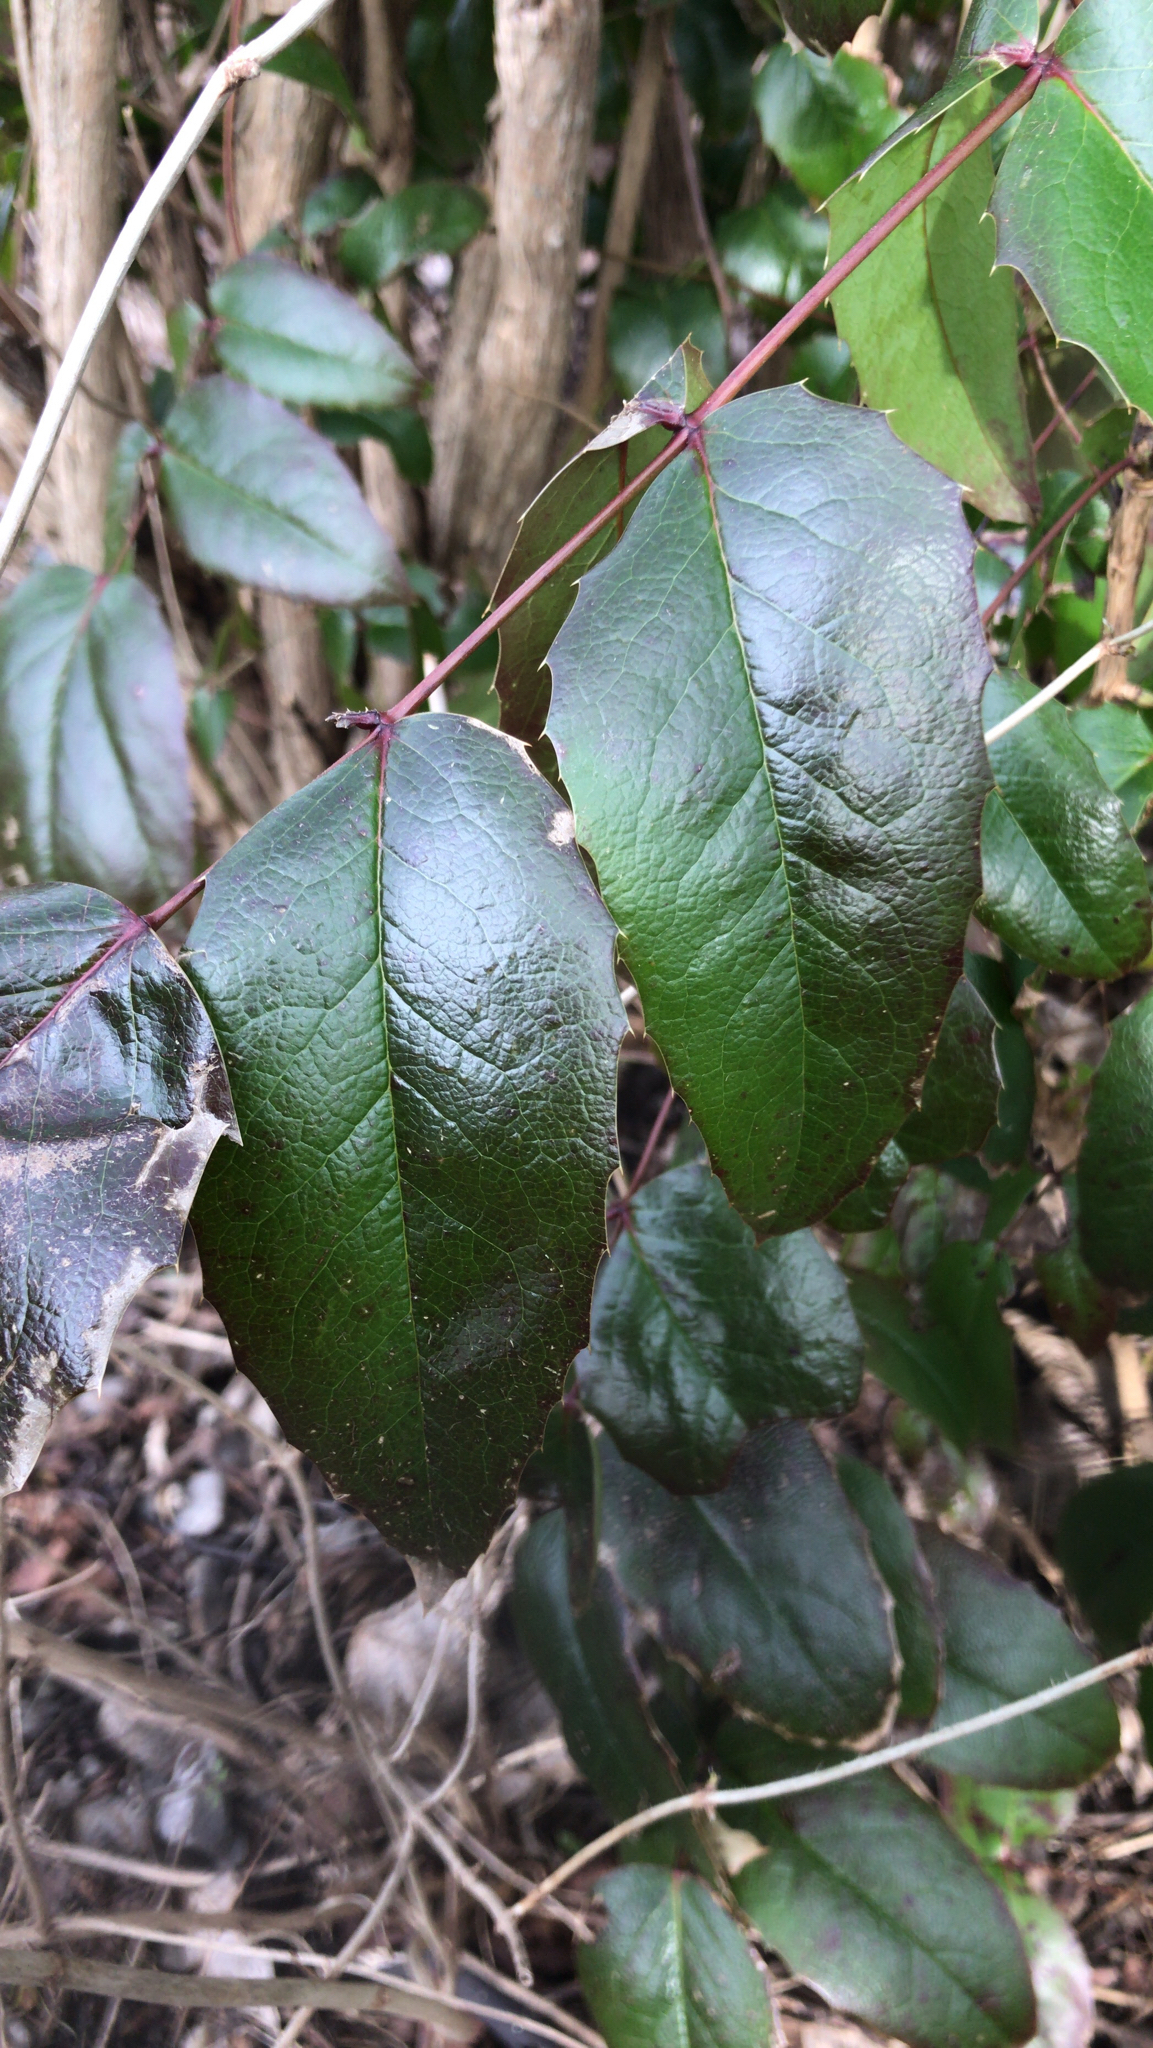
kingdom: Plantae
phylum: Tracheophyta
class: Magnoliopsida
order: Ranunculales
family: Berberidaceae
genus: Mahonia
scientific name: Mahonia aquifolium
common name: Oregon-grape
